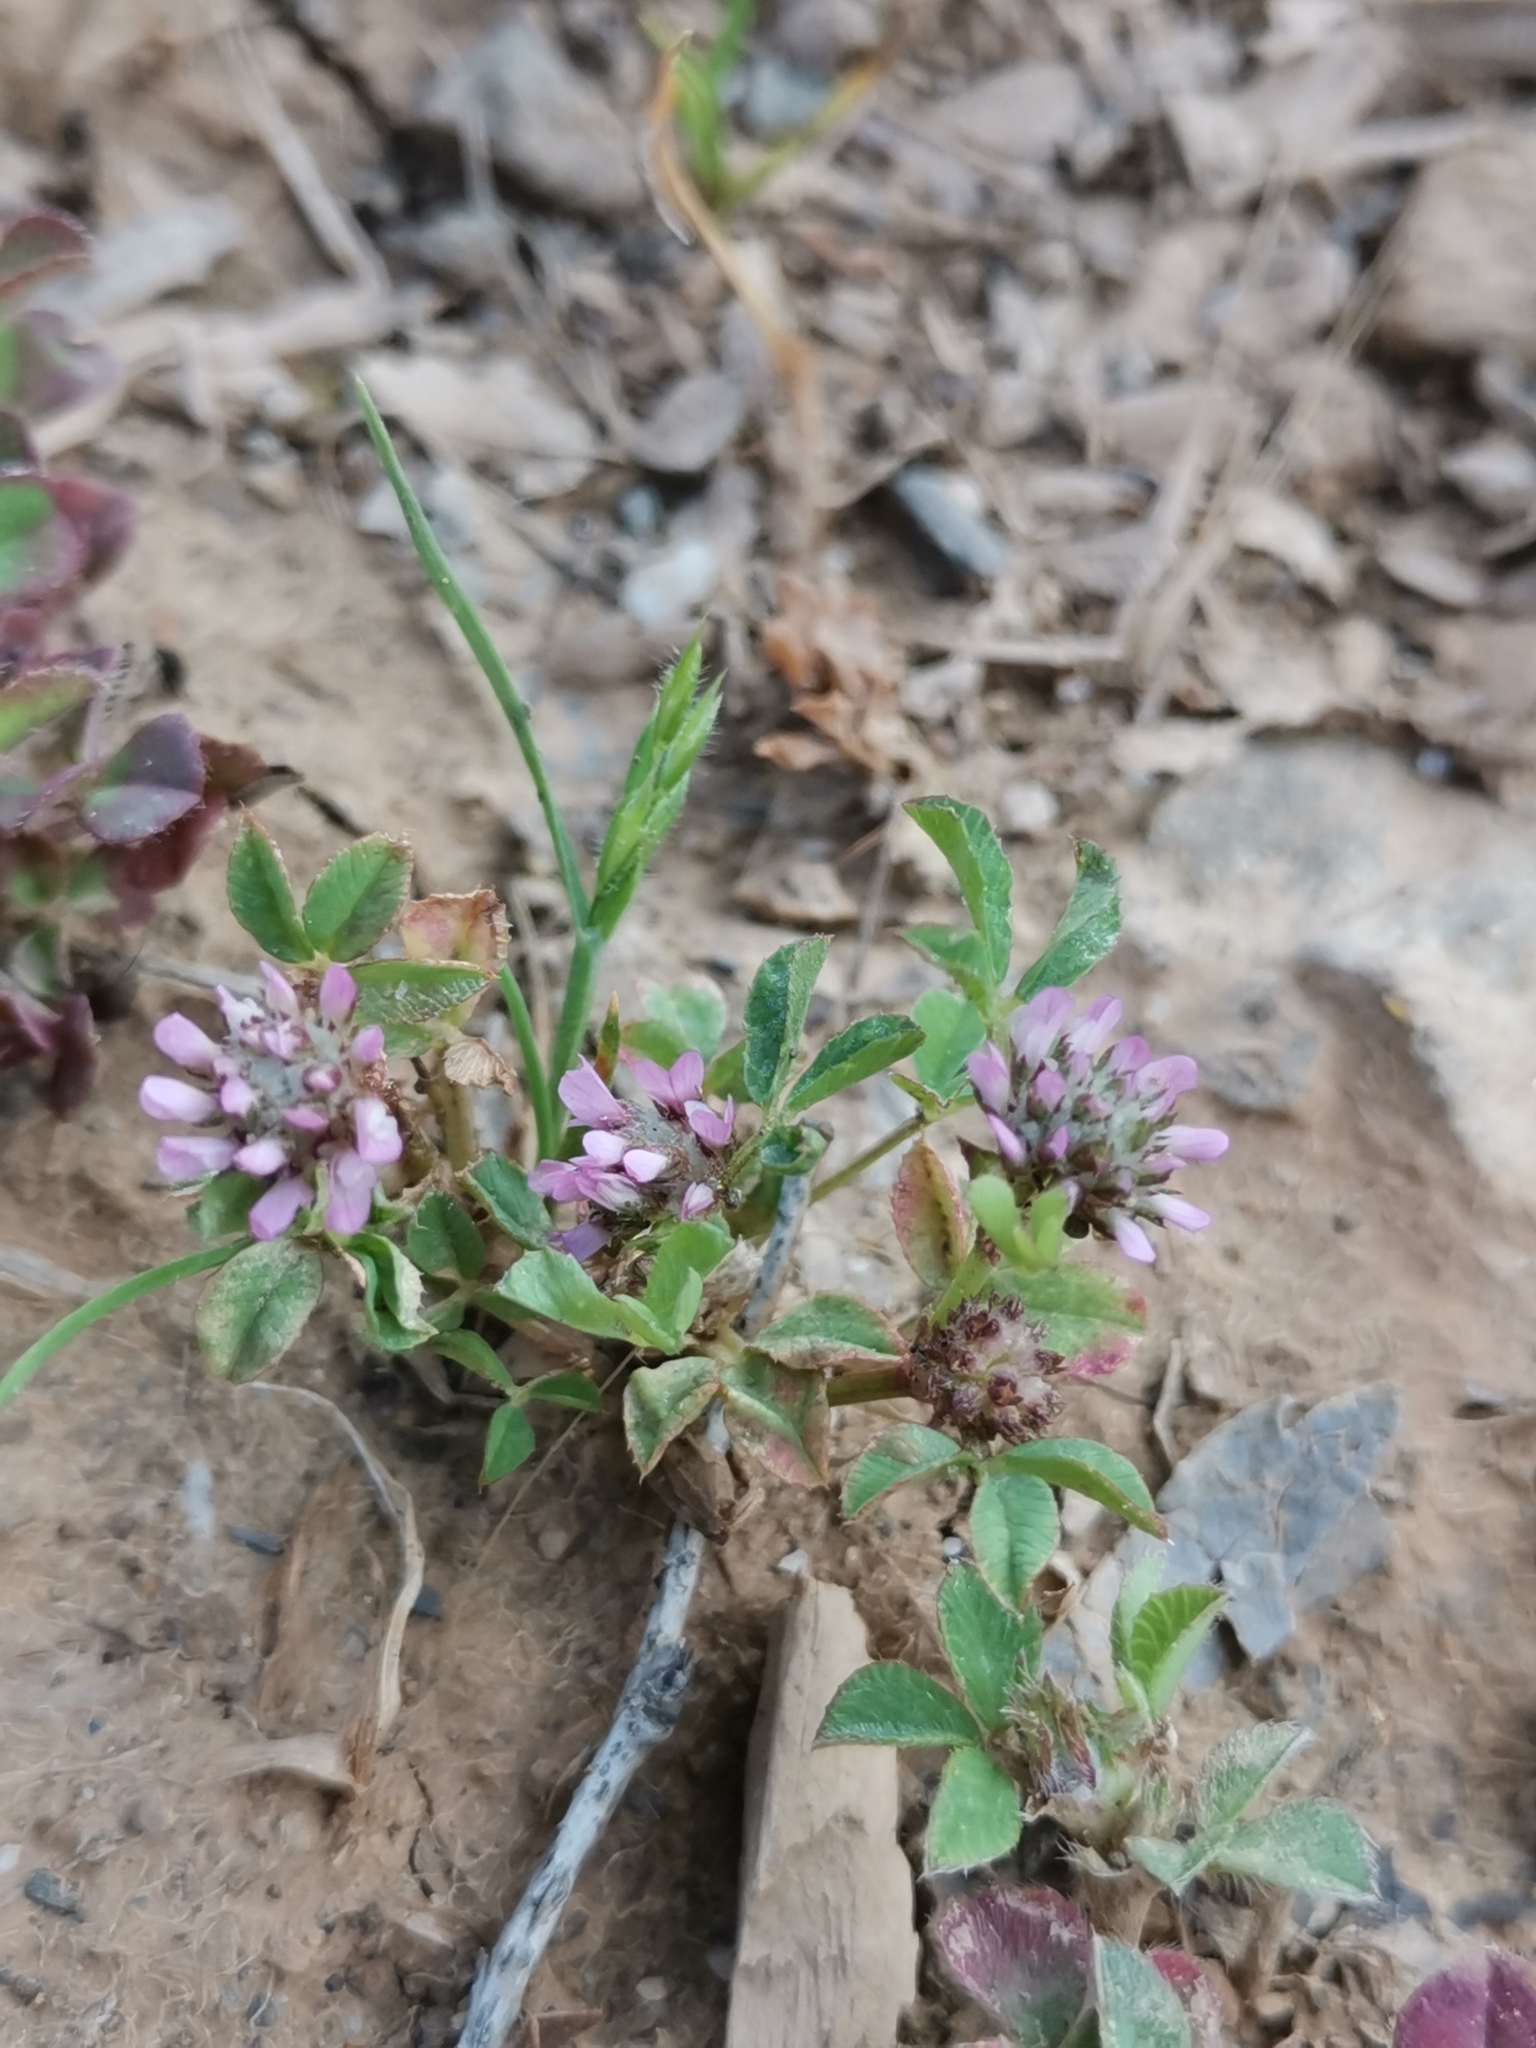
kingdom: Plantae
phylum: Tracheophyta
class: Magnoliopsida
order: Fabales
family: Fabaceae
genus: Trifolium
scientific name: Trifolium resupinatum
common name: Reversed clover
